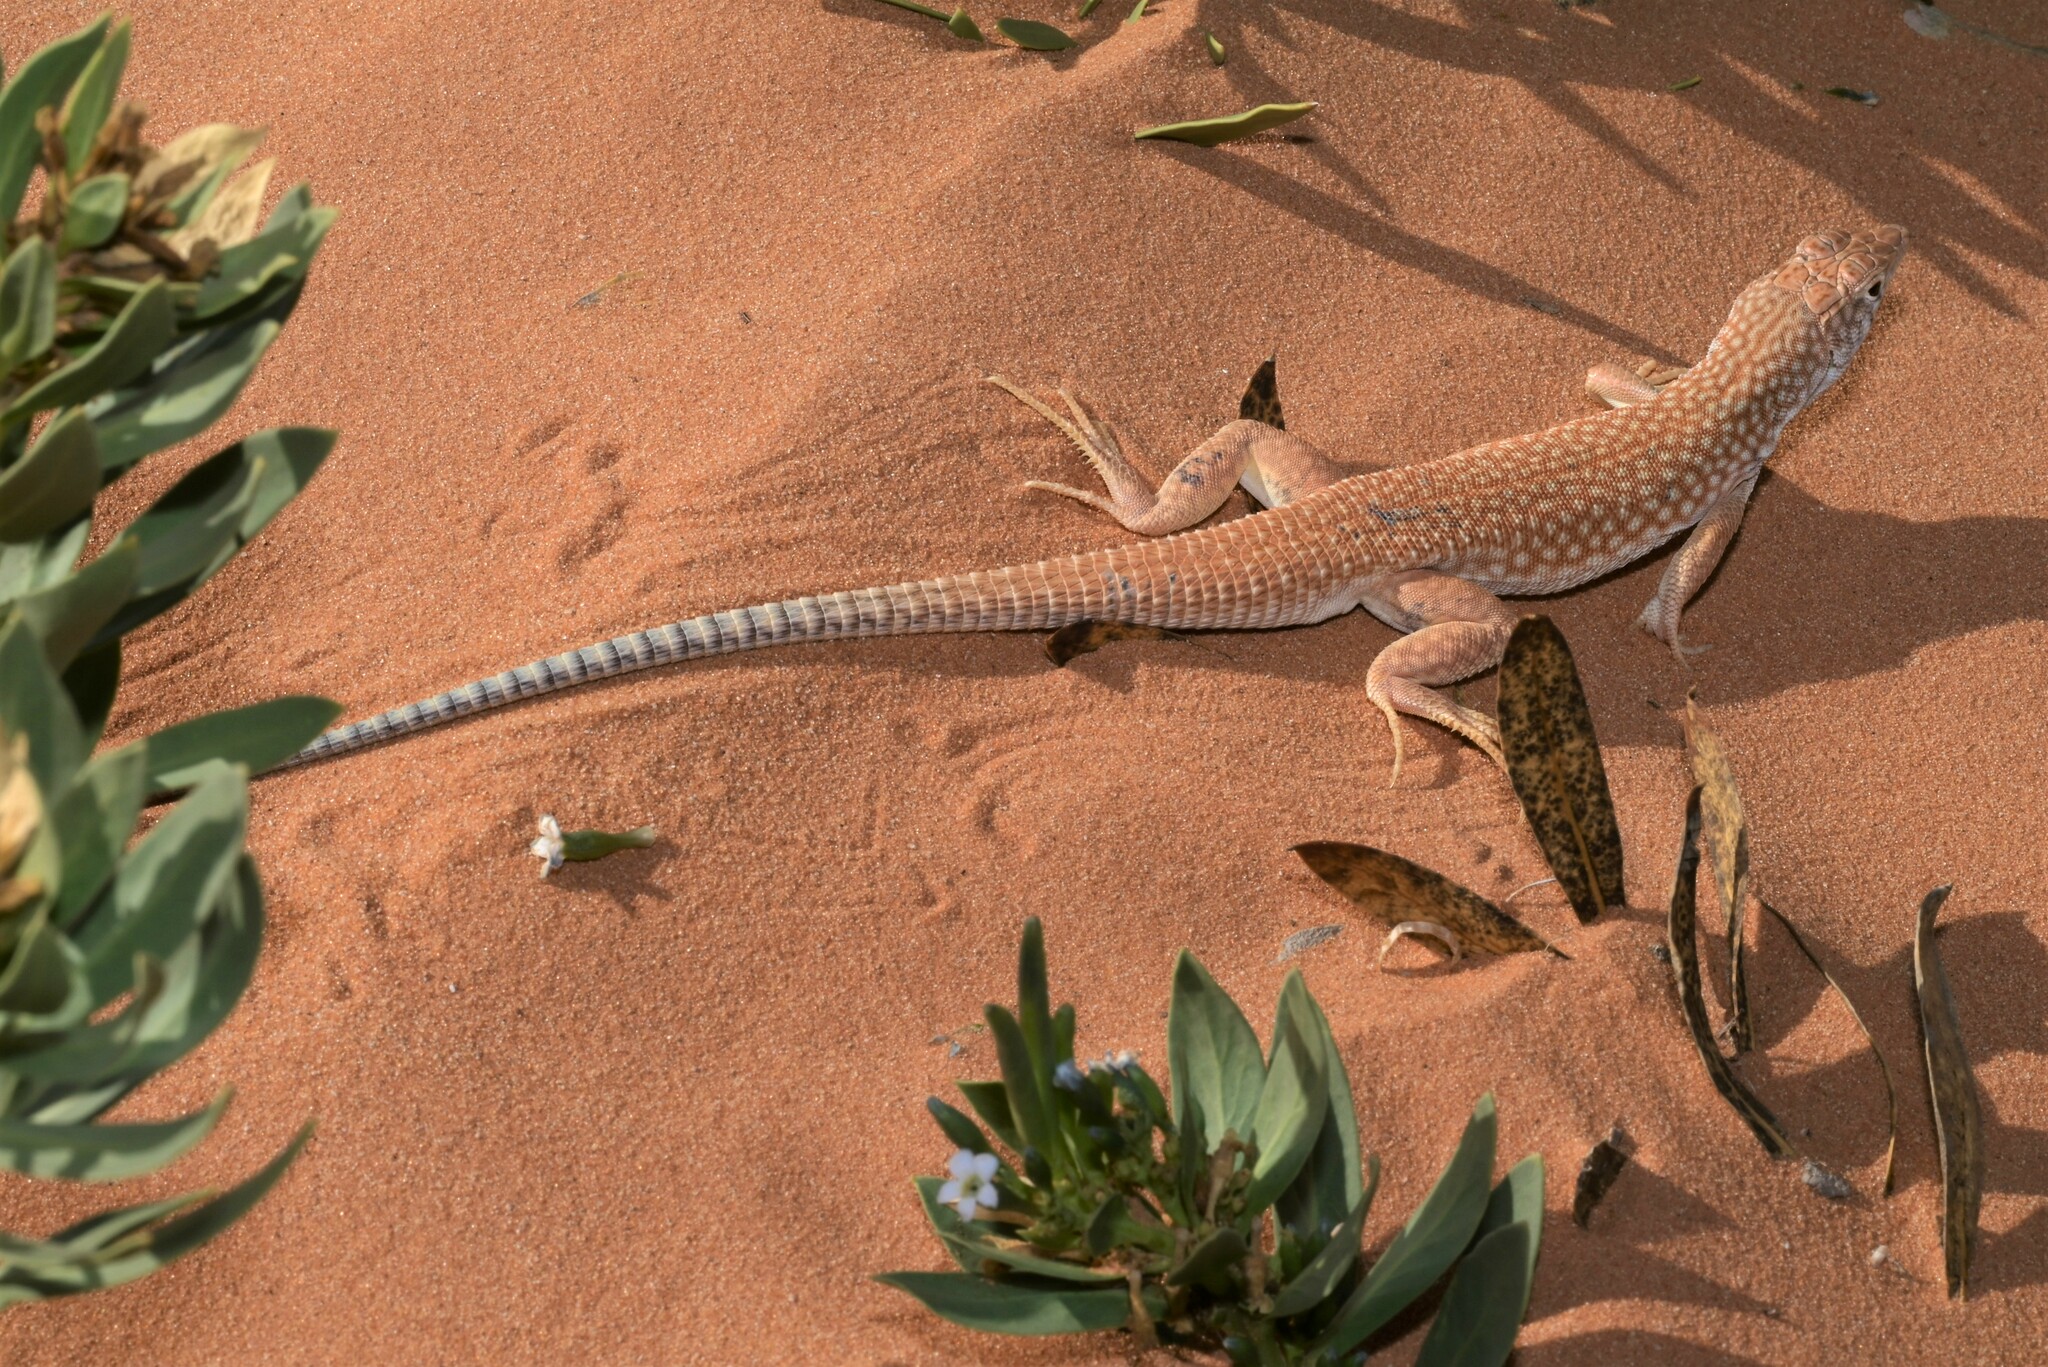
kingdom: Animalia
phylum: Chordata
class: Squamata
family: Lacertidae
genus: Acanthodactylus
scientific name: Acanthodactylus schmidti
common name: Schmidt's fringe-toed lizard
